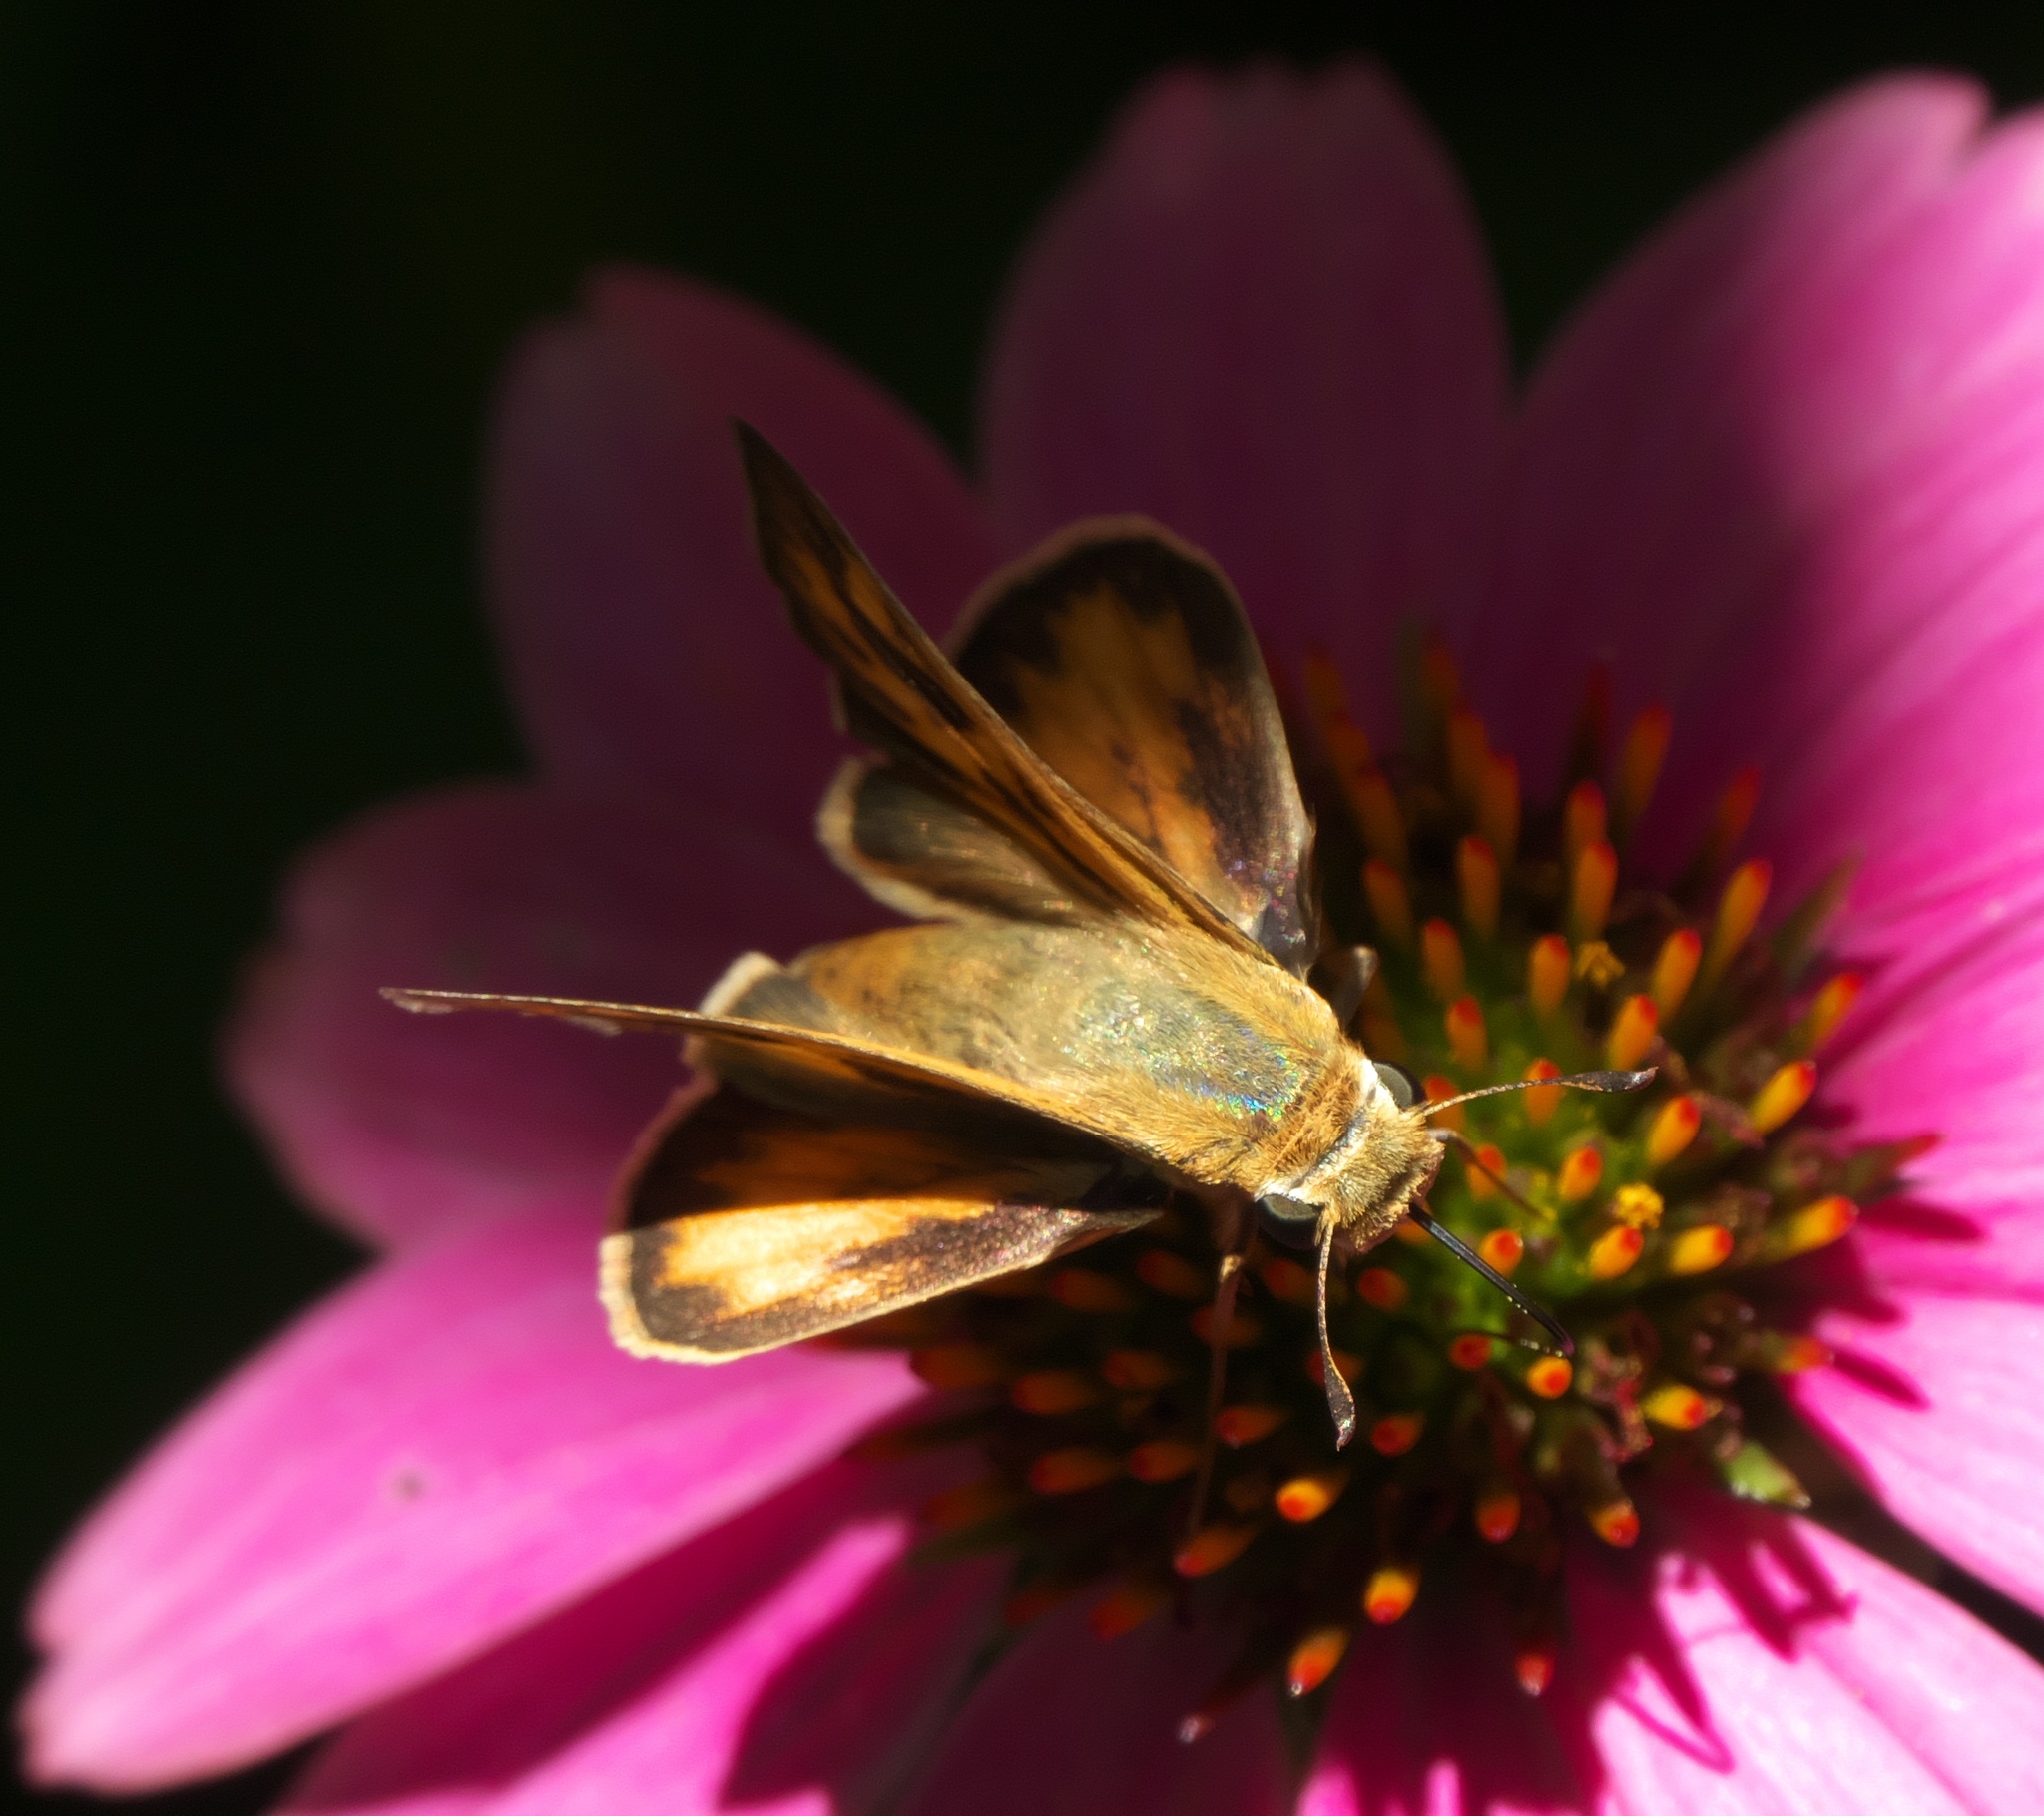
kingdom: Animalia
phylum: Arthropoda
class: Insecta
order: Lepidoptera
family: Hesperiidae
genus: Hylephila
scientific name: Hylephila phyleus
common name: Fiery skipper
